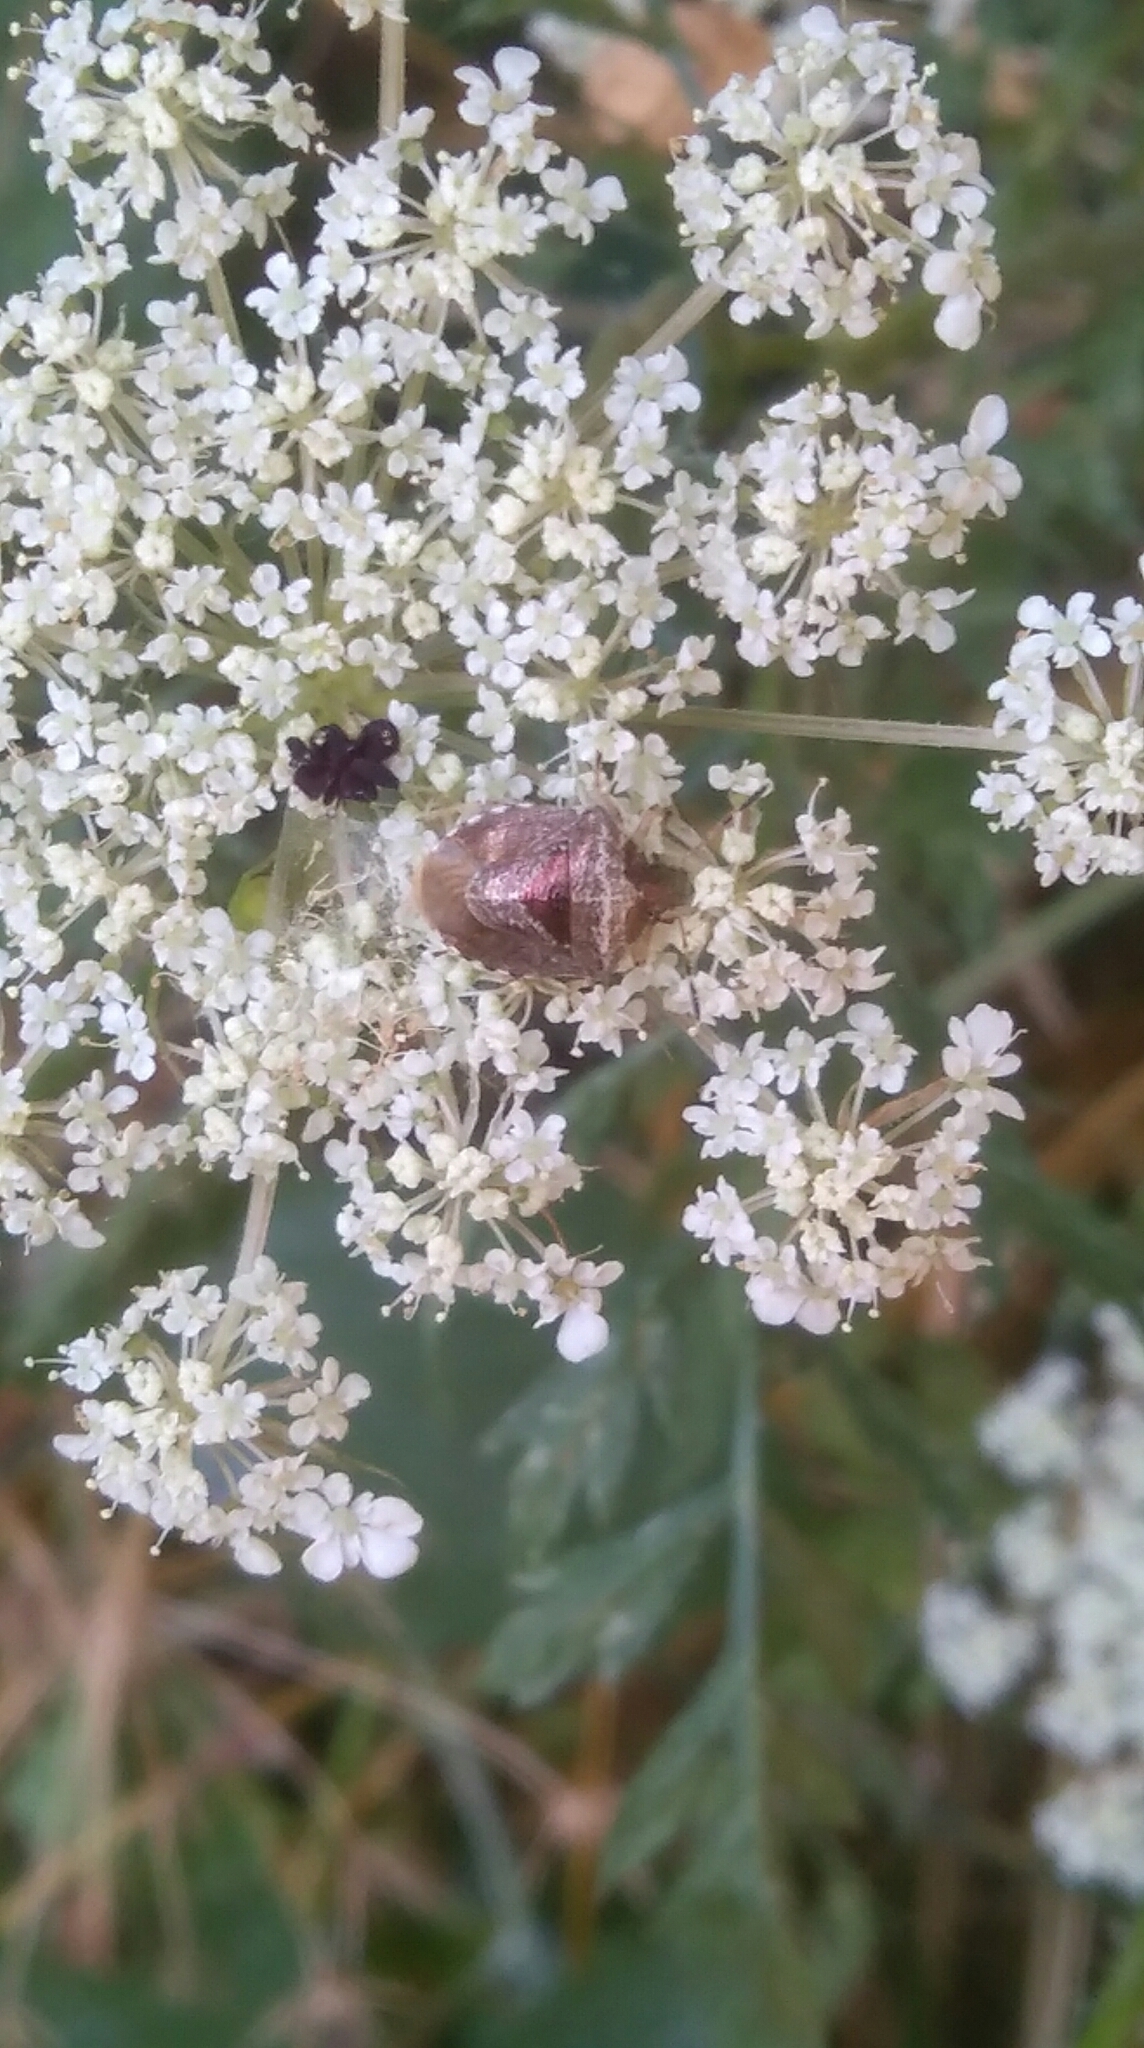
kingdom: Animalia
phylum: Arthropoda
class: Insecta
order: Hemiptera
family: Pentatomidae
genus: Eysarcoris
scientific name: Eysarcoris venustissimus
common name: Woundwort shieldbug
